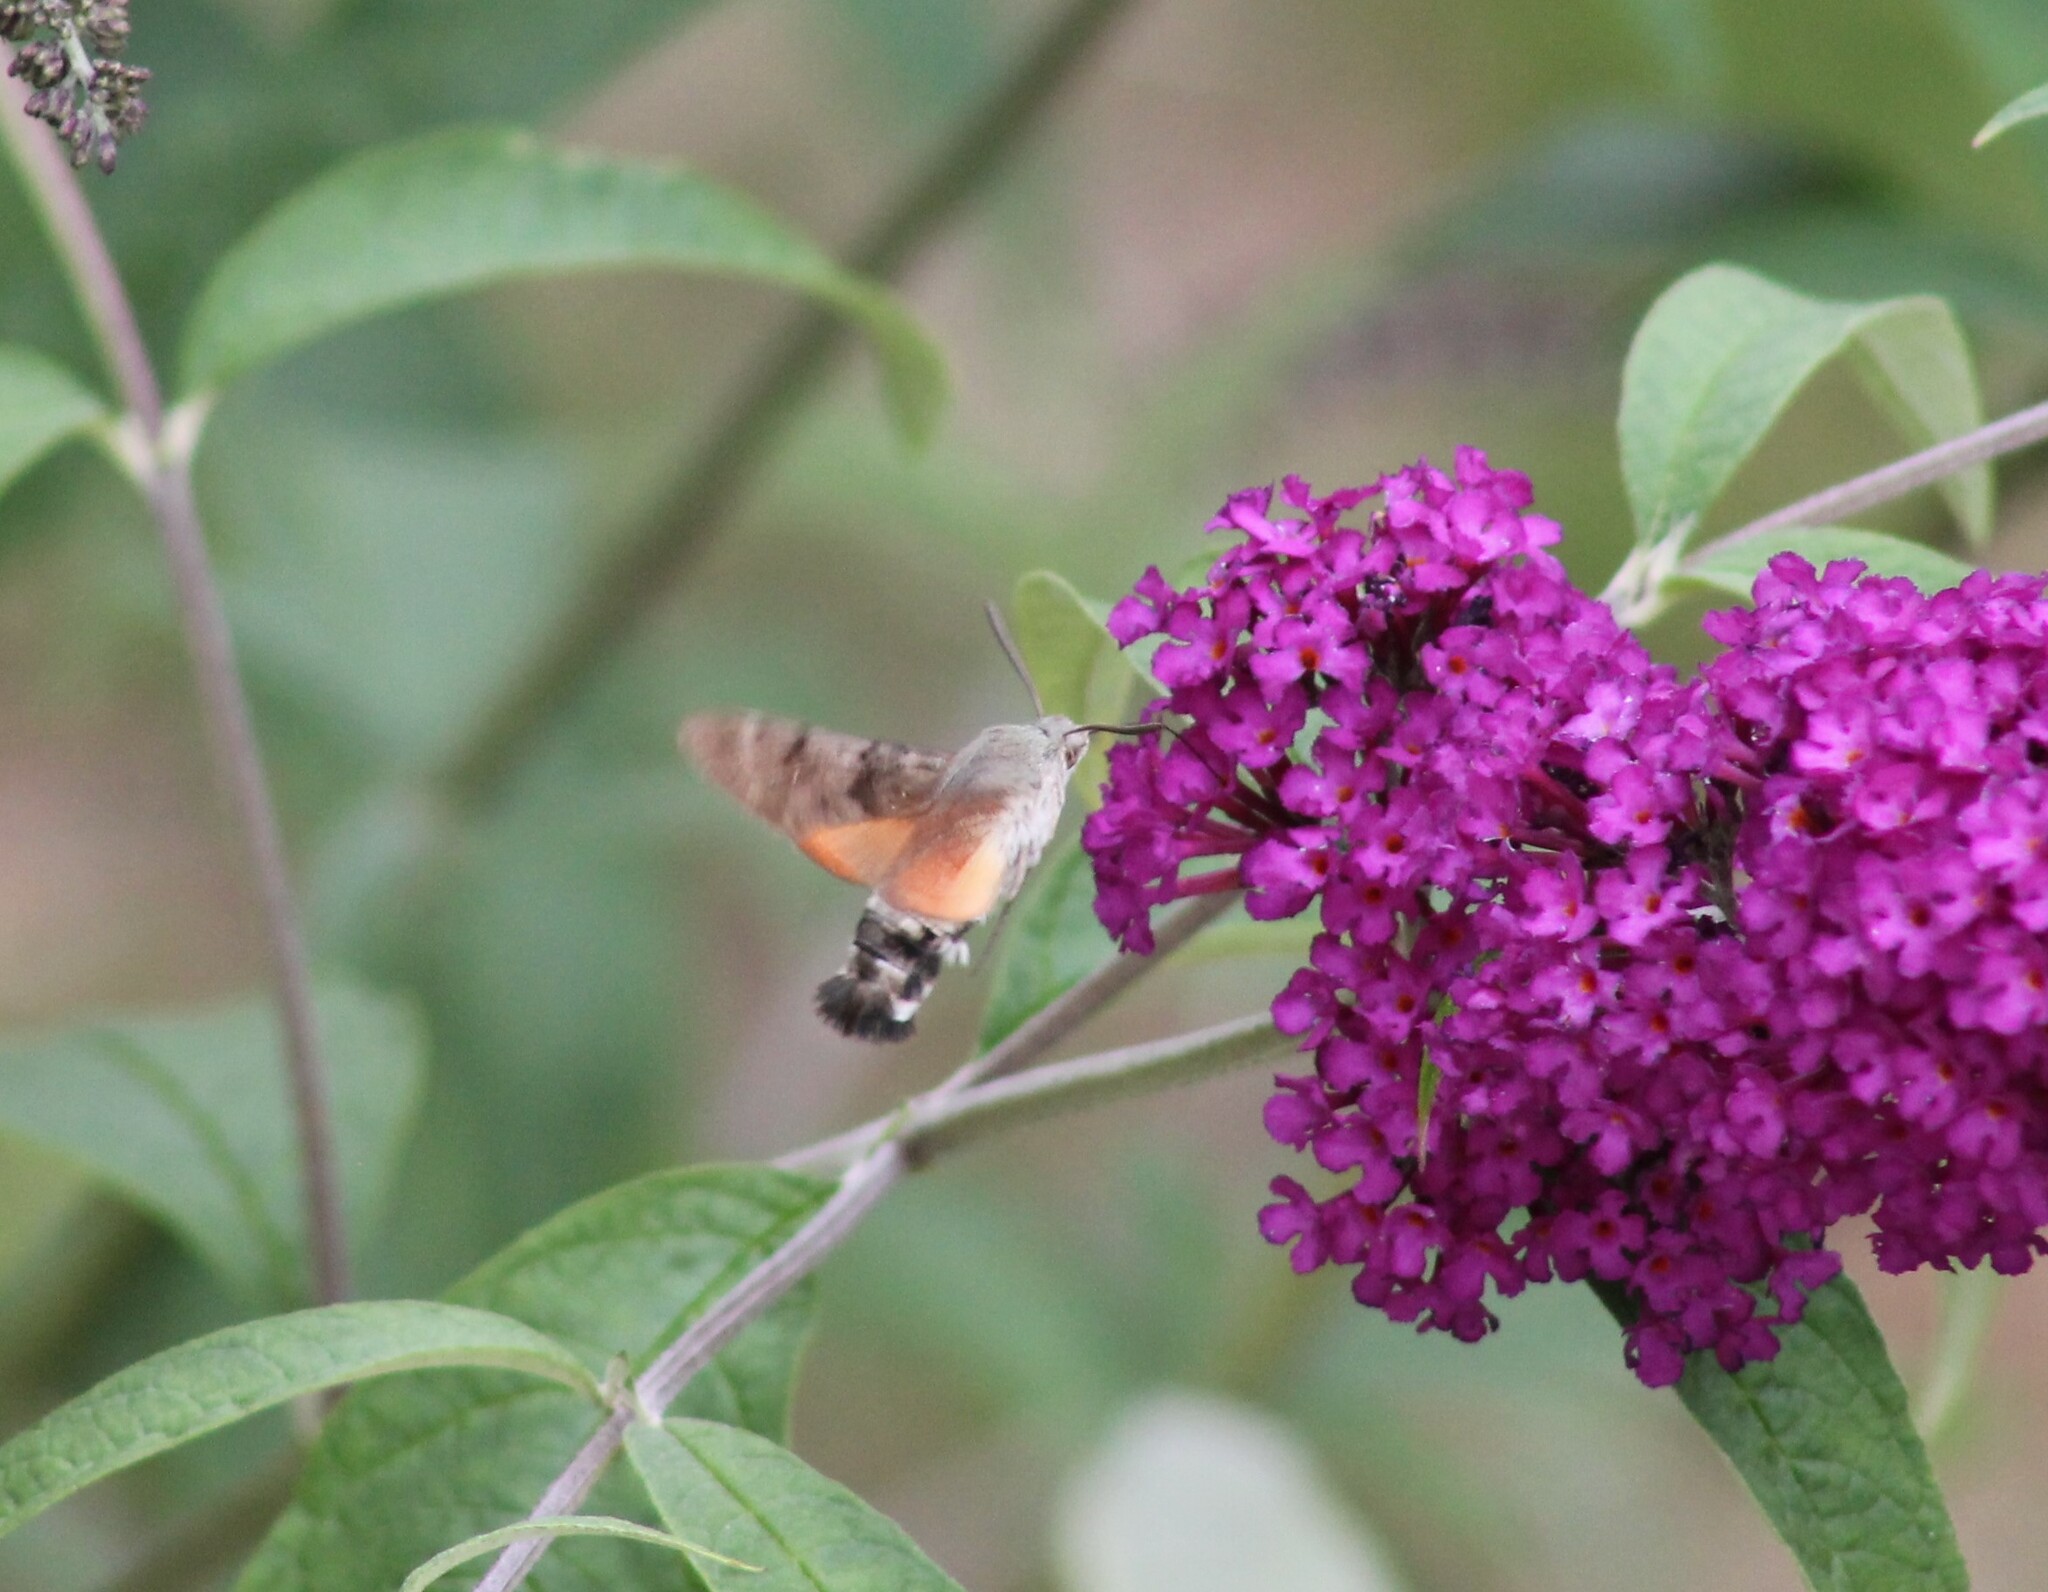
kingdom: Animalia
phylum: Arthropoda
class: Insecta
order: Lepidoptera
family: Sphingidae
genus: Macroglossum
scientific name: Macroglossum stellatarum
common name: Humming-bird hawk-moth
